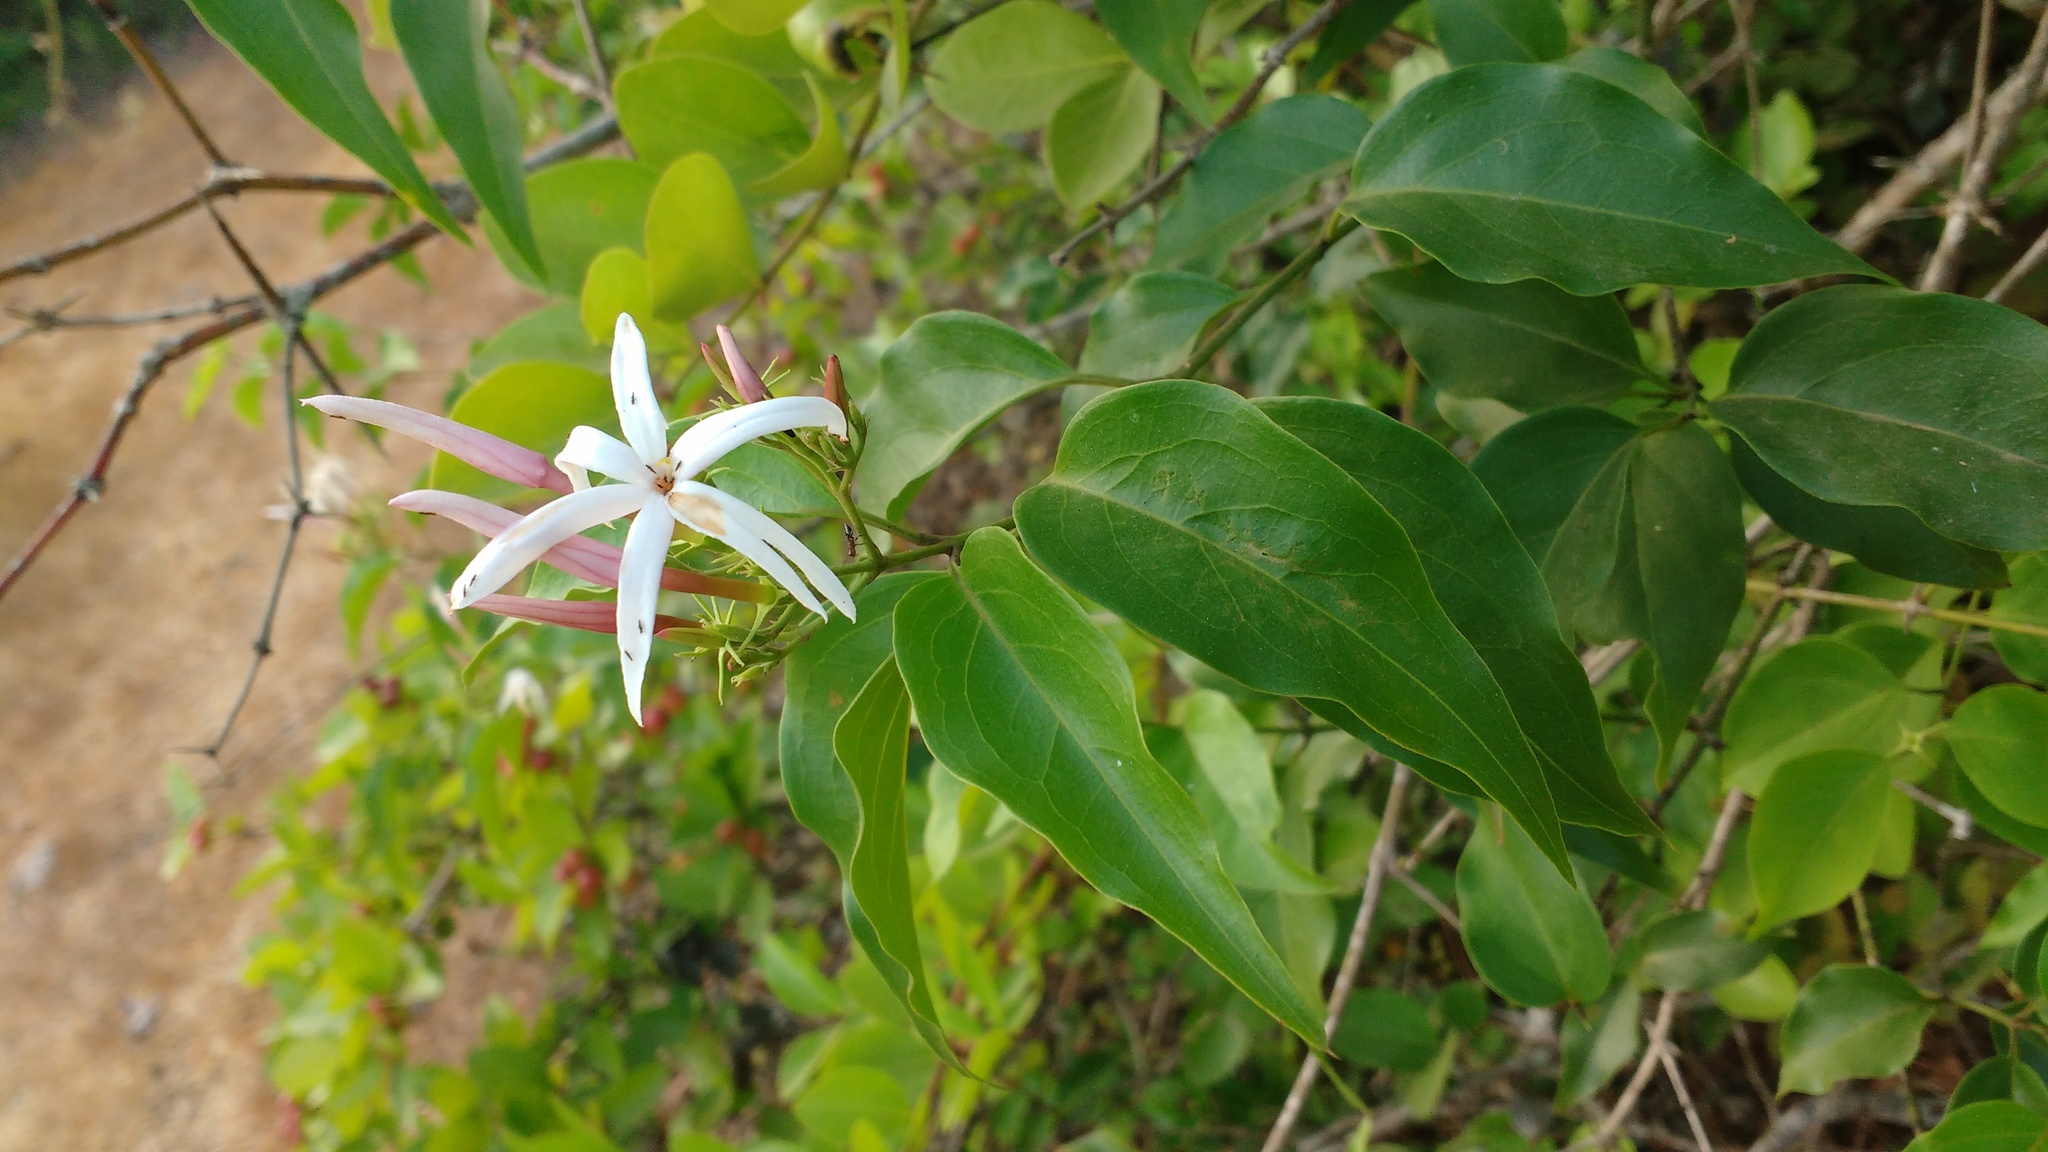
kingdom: Plantae
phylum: Tracheophyta
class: Magnoliopsida
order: Lamiales
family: Oleaceae
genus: Jasminum
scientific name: Jasminum malabaricum
